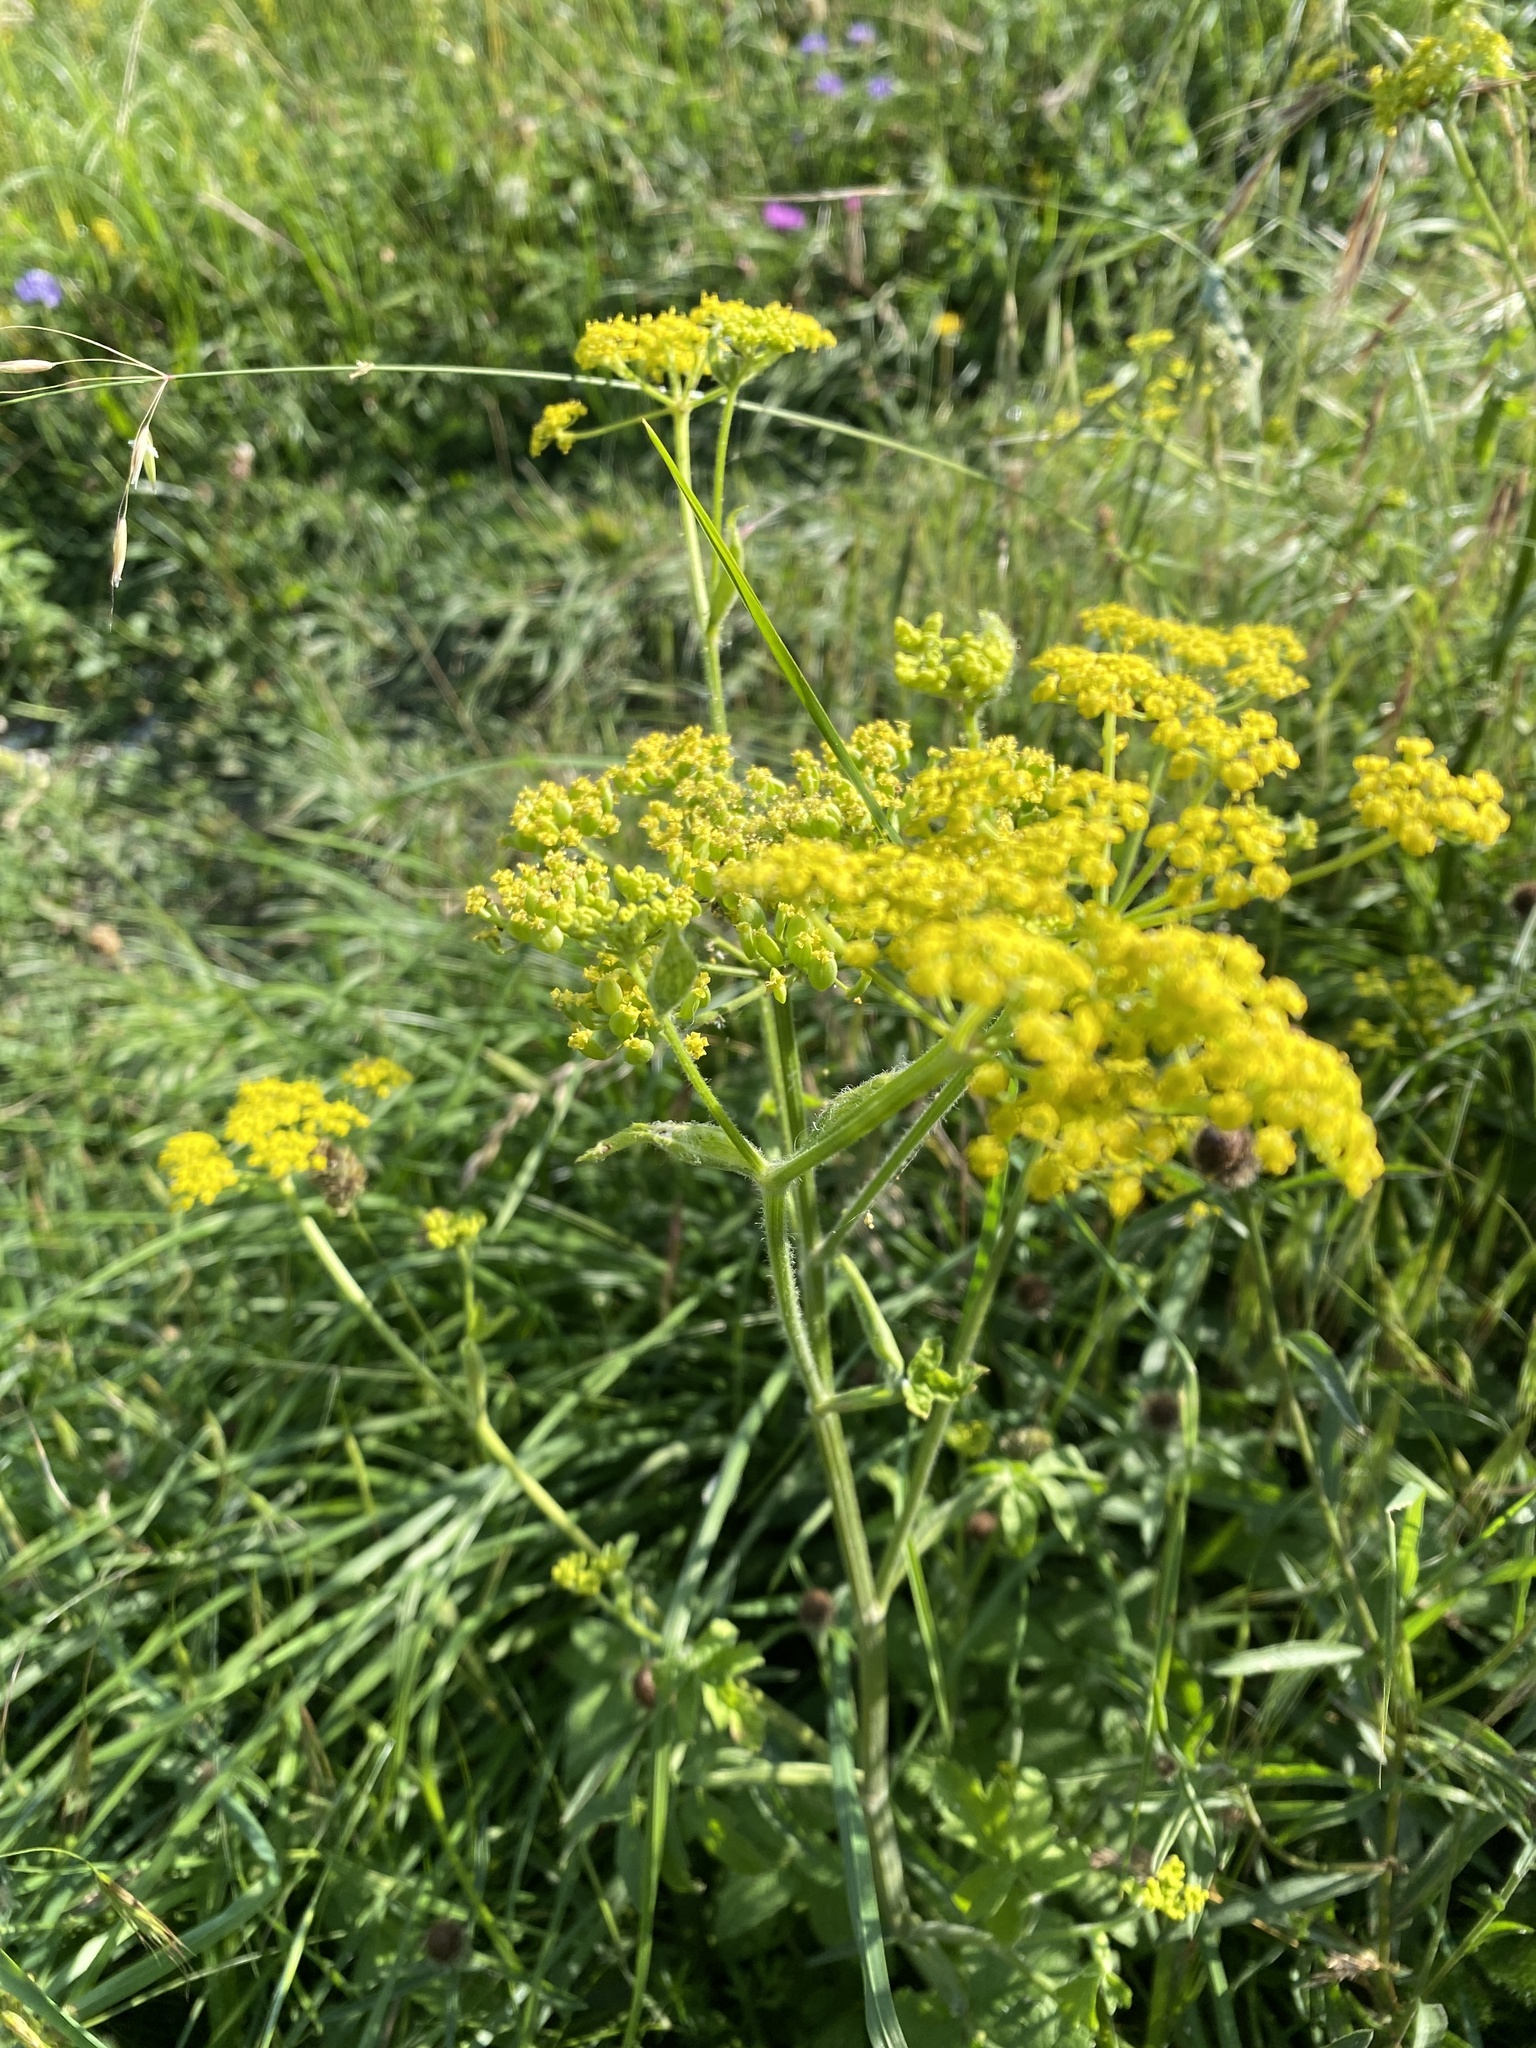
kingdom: Plantae
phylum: Tracheophyta
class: Magnoliopsida
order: Apiales
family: Apiaceae
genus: Pastinaca
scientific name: Pastinaca sativa
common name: Wild parsnip
